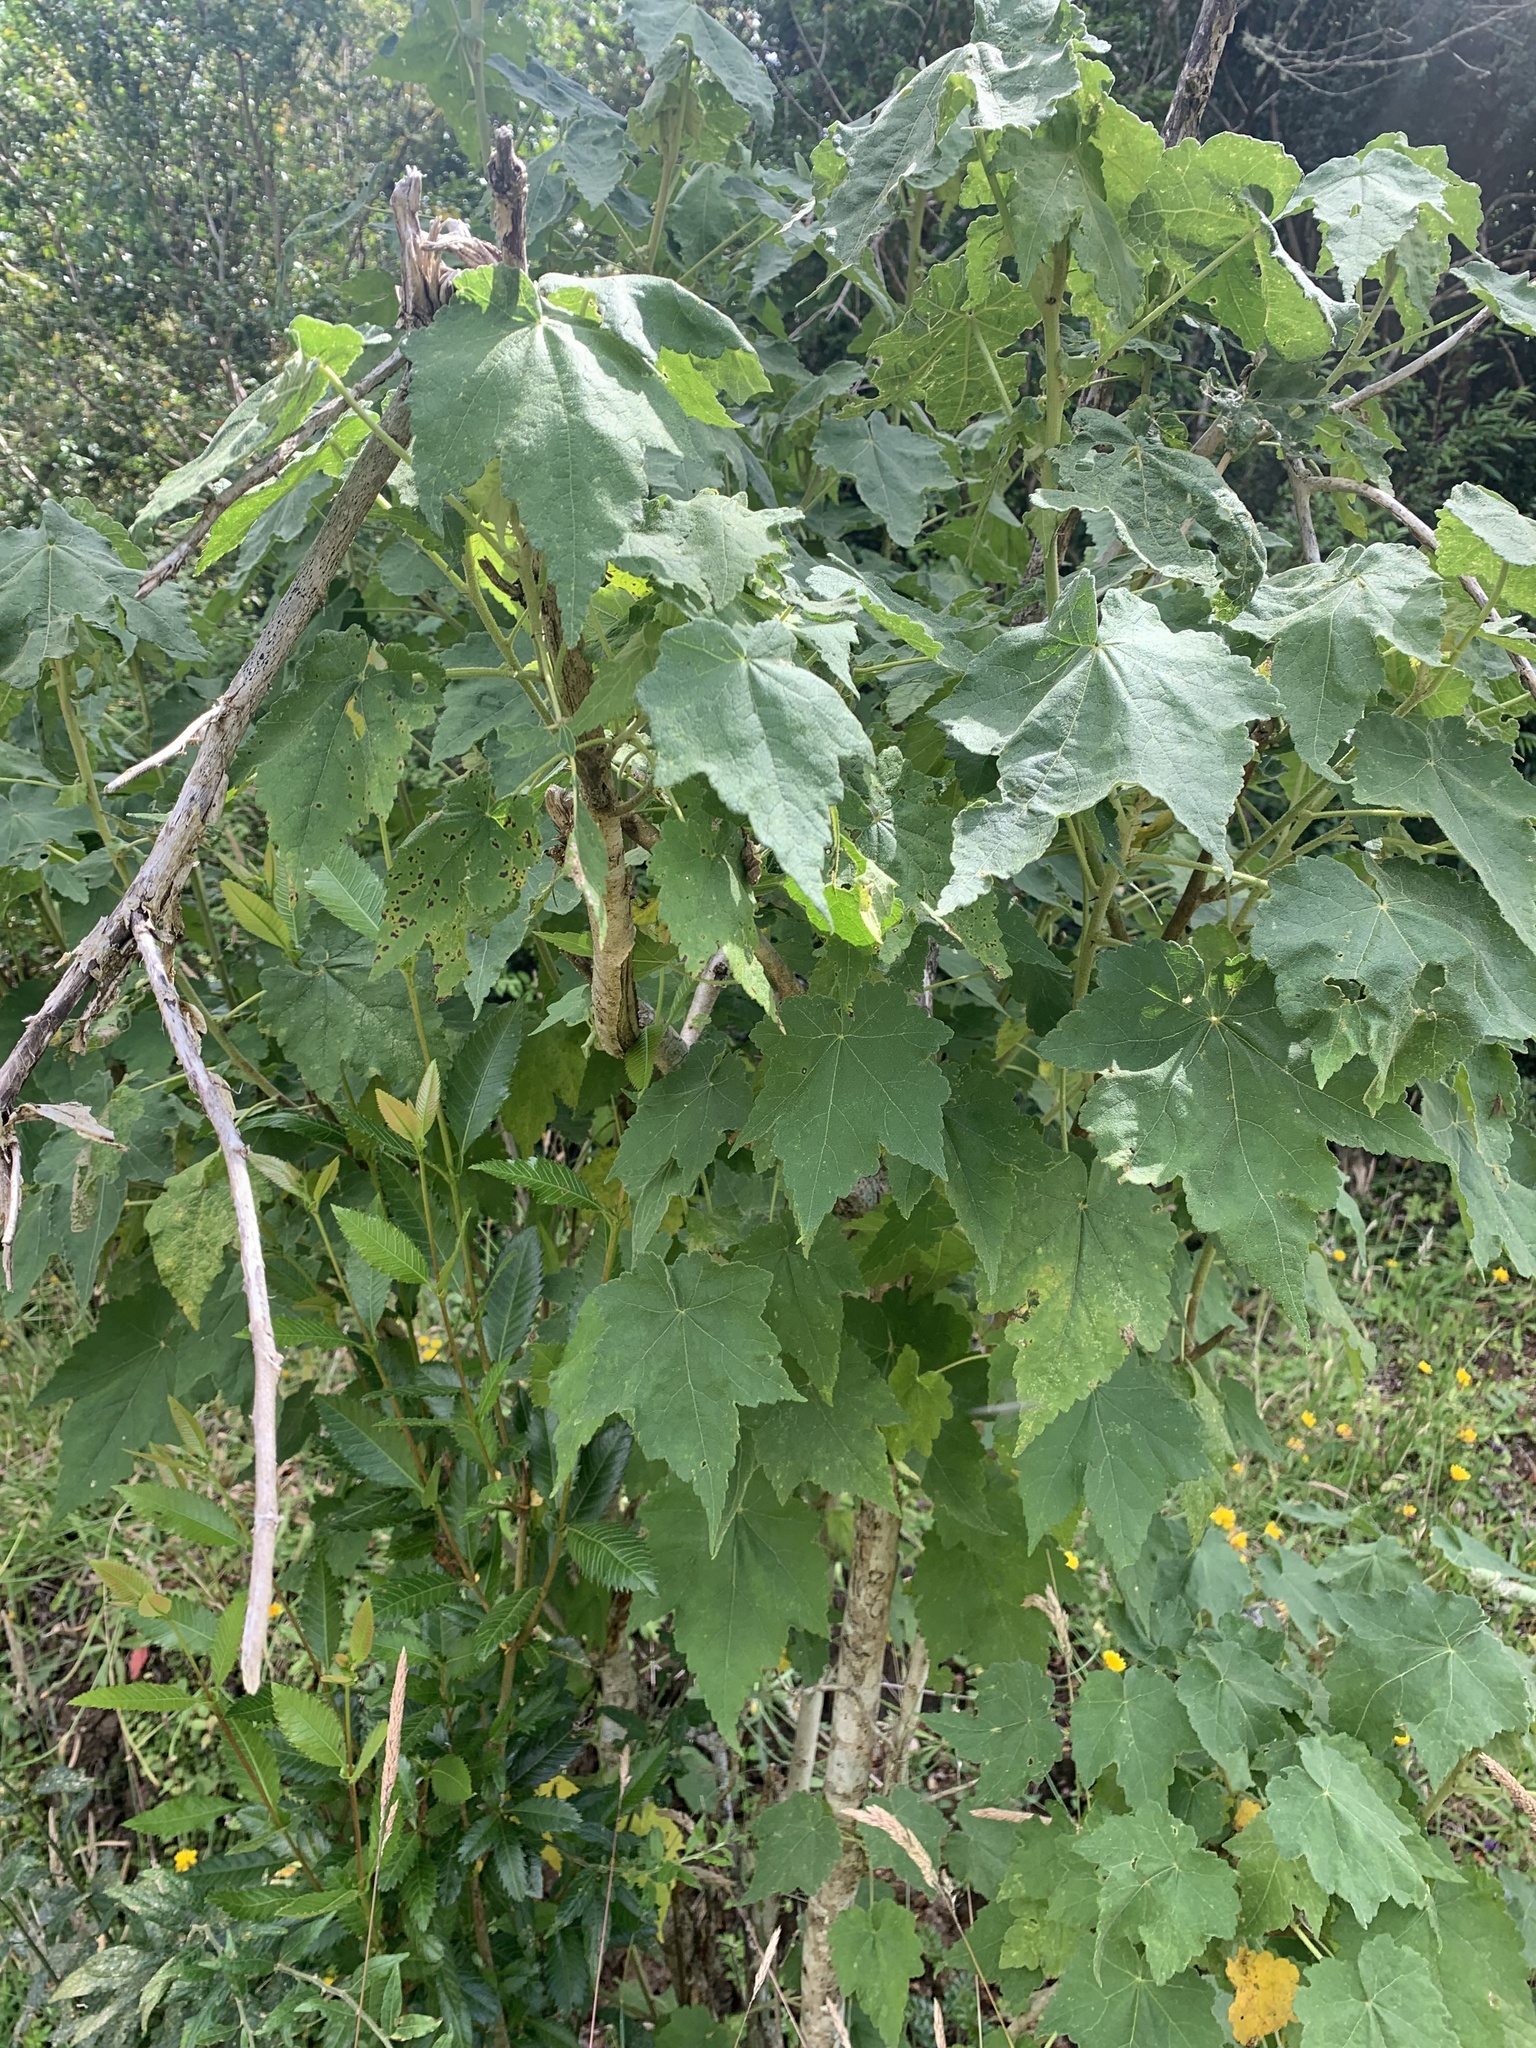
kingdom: Plantae
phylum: Tracheophyta
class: Magnoliopsida
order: Malvales
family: Malvaceae
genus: Corynabutilon
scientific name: Corynabutilon vitifolium
